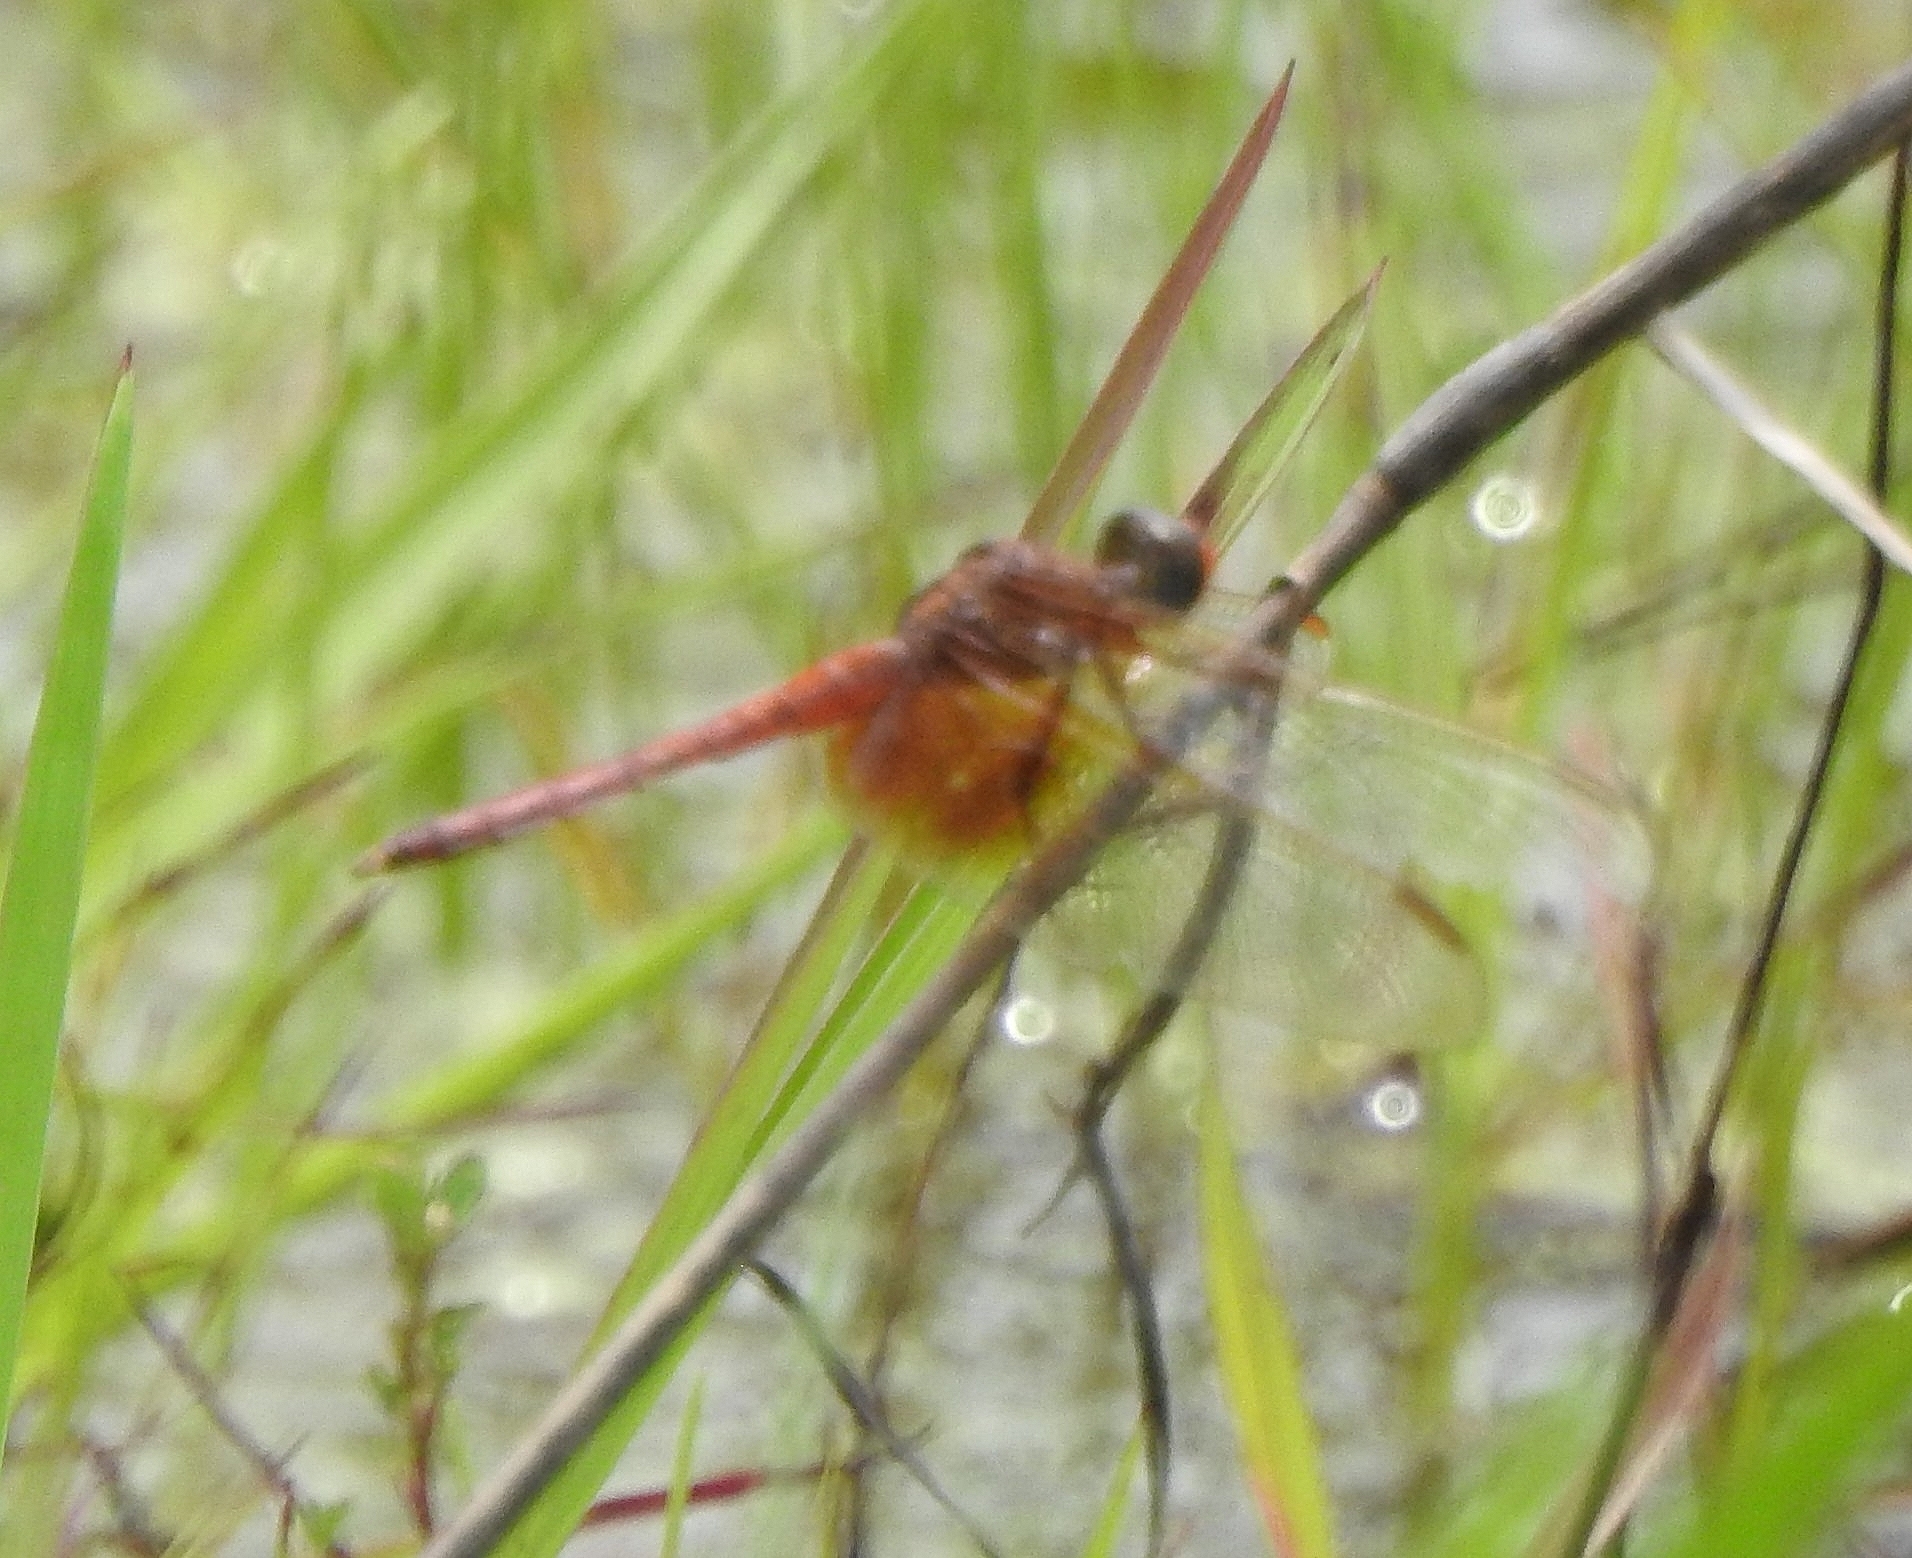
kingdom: Animalia
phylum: Arthropoda
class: Insecta
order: Odonata
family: Libellulidae
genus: Neurothemis
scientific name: Neurothemis intermedia
